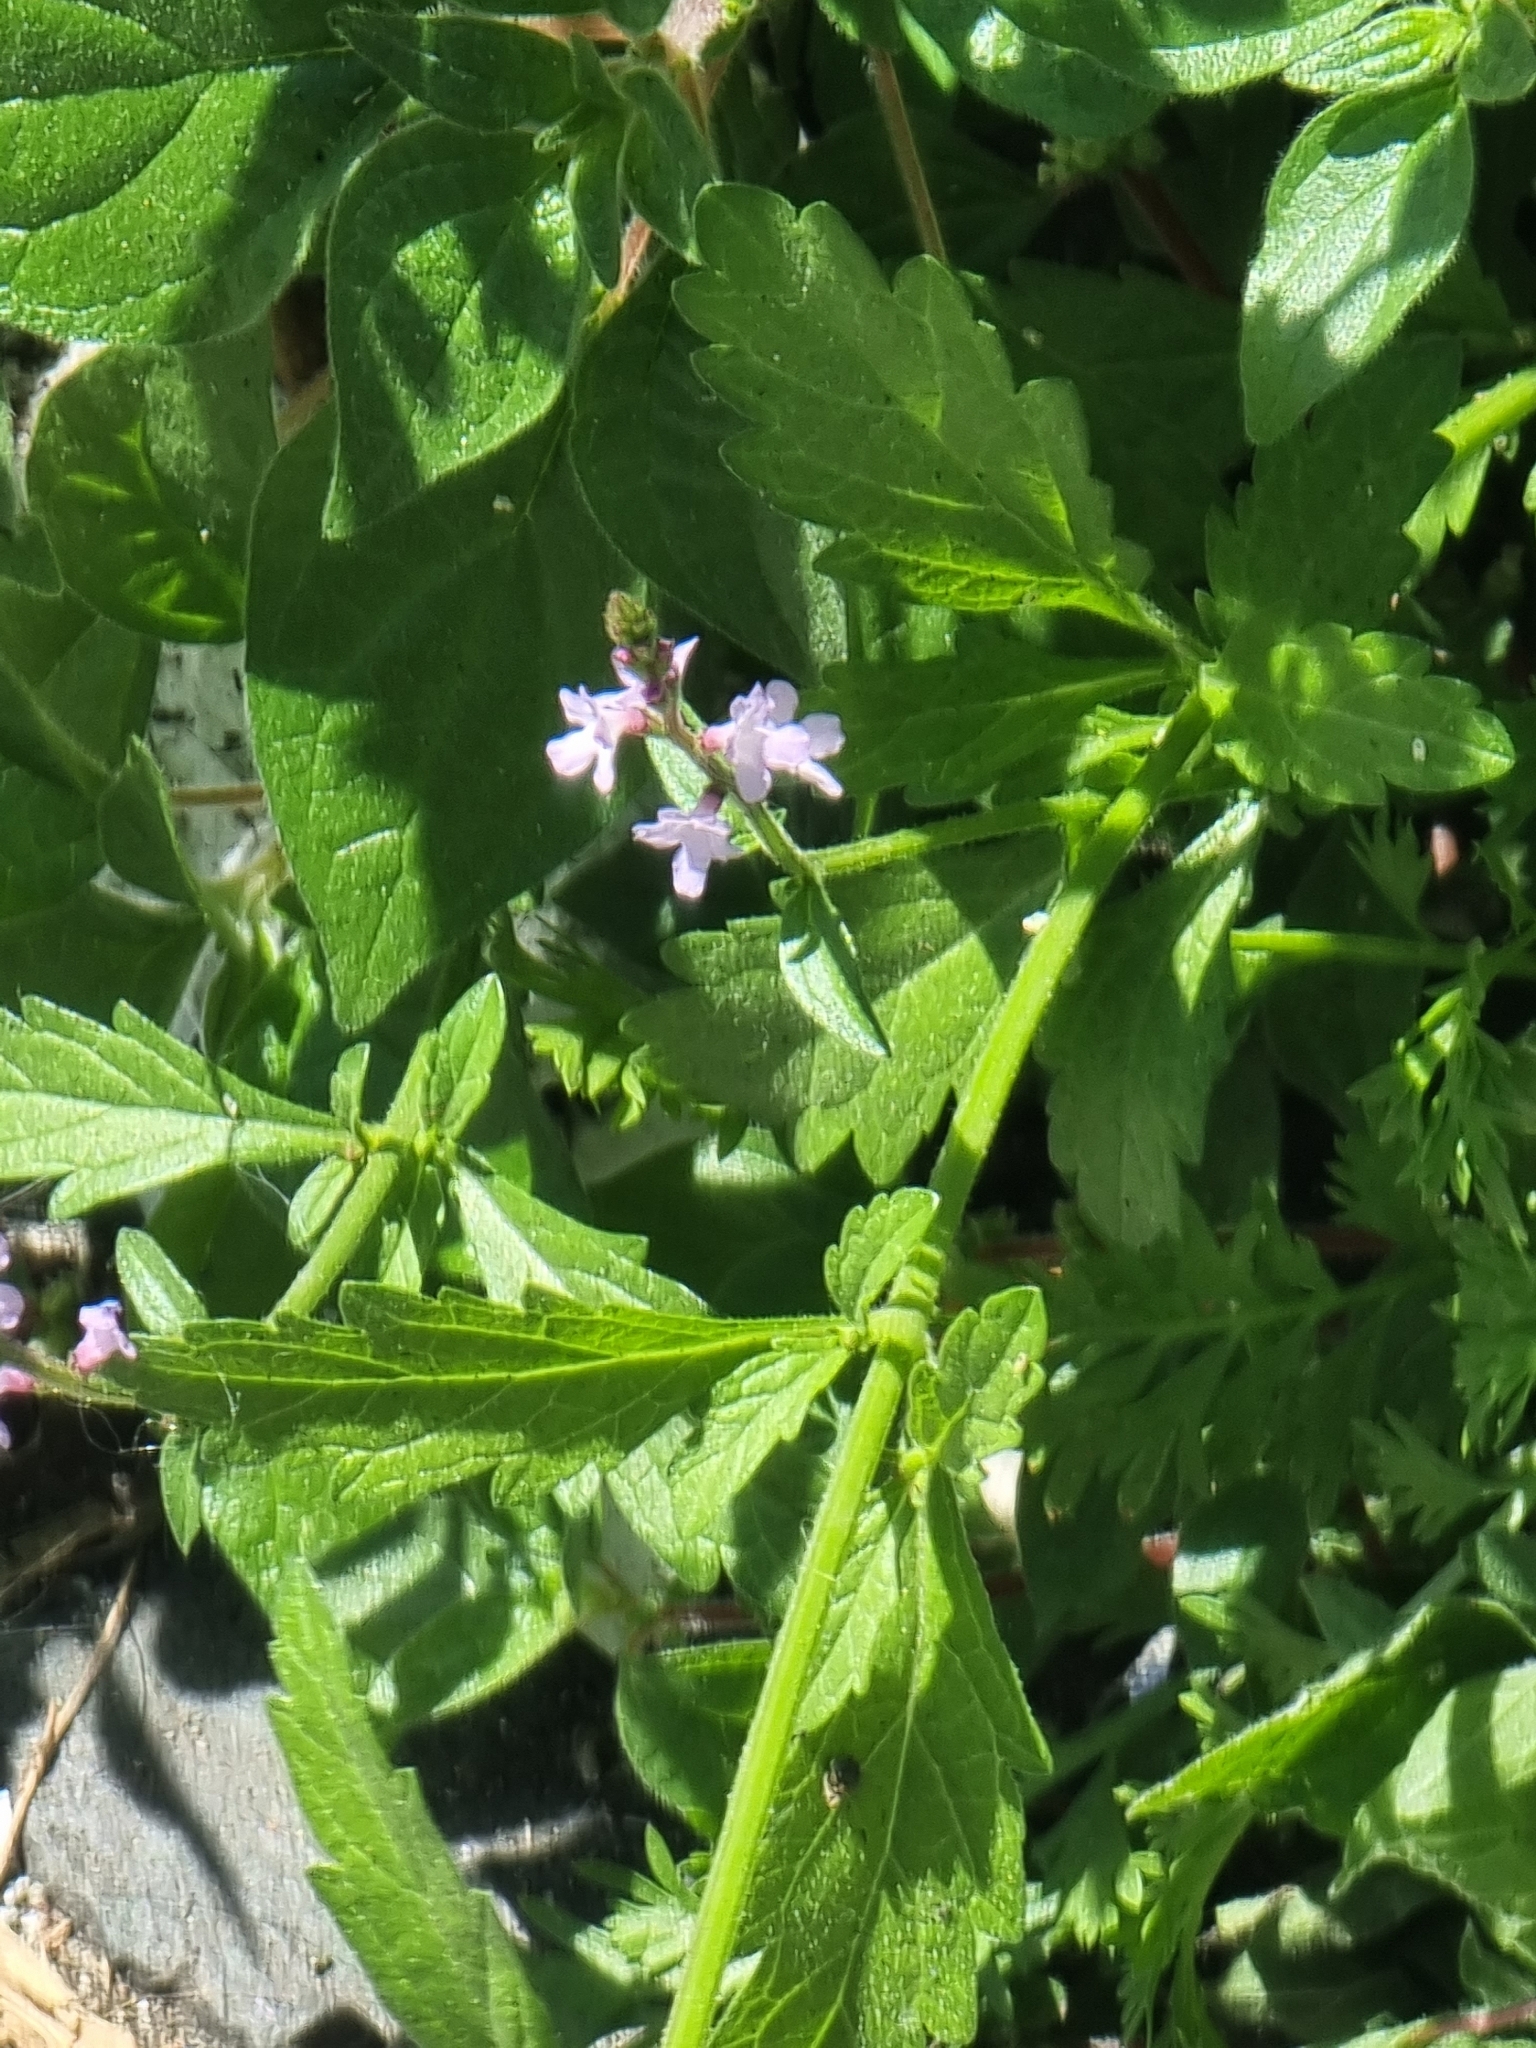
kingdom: Plantae
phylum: Tracheophyta
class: Magnoliopsida
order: Lamiales
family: Verbenaceae
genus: Verbena
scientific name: Verbena officinalis
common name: Vervain
